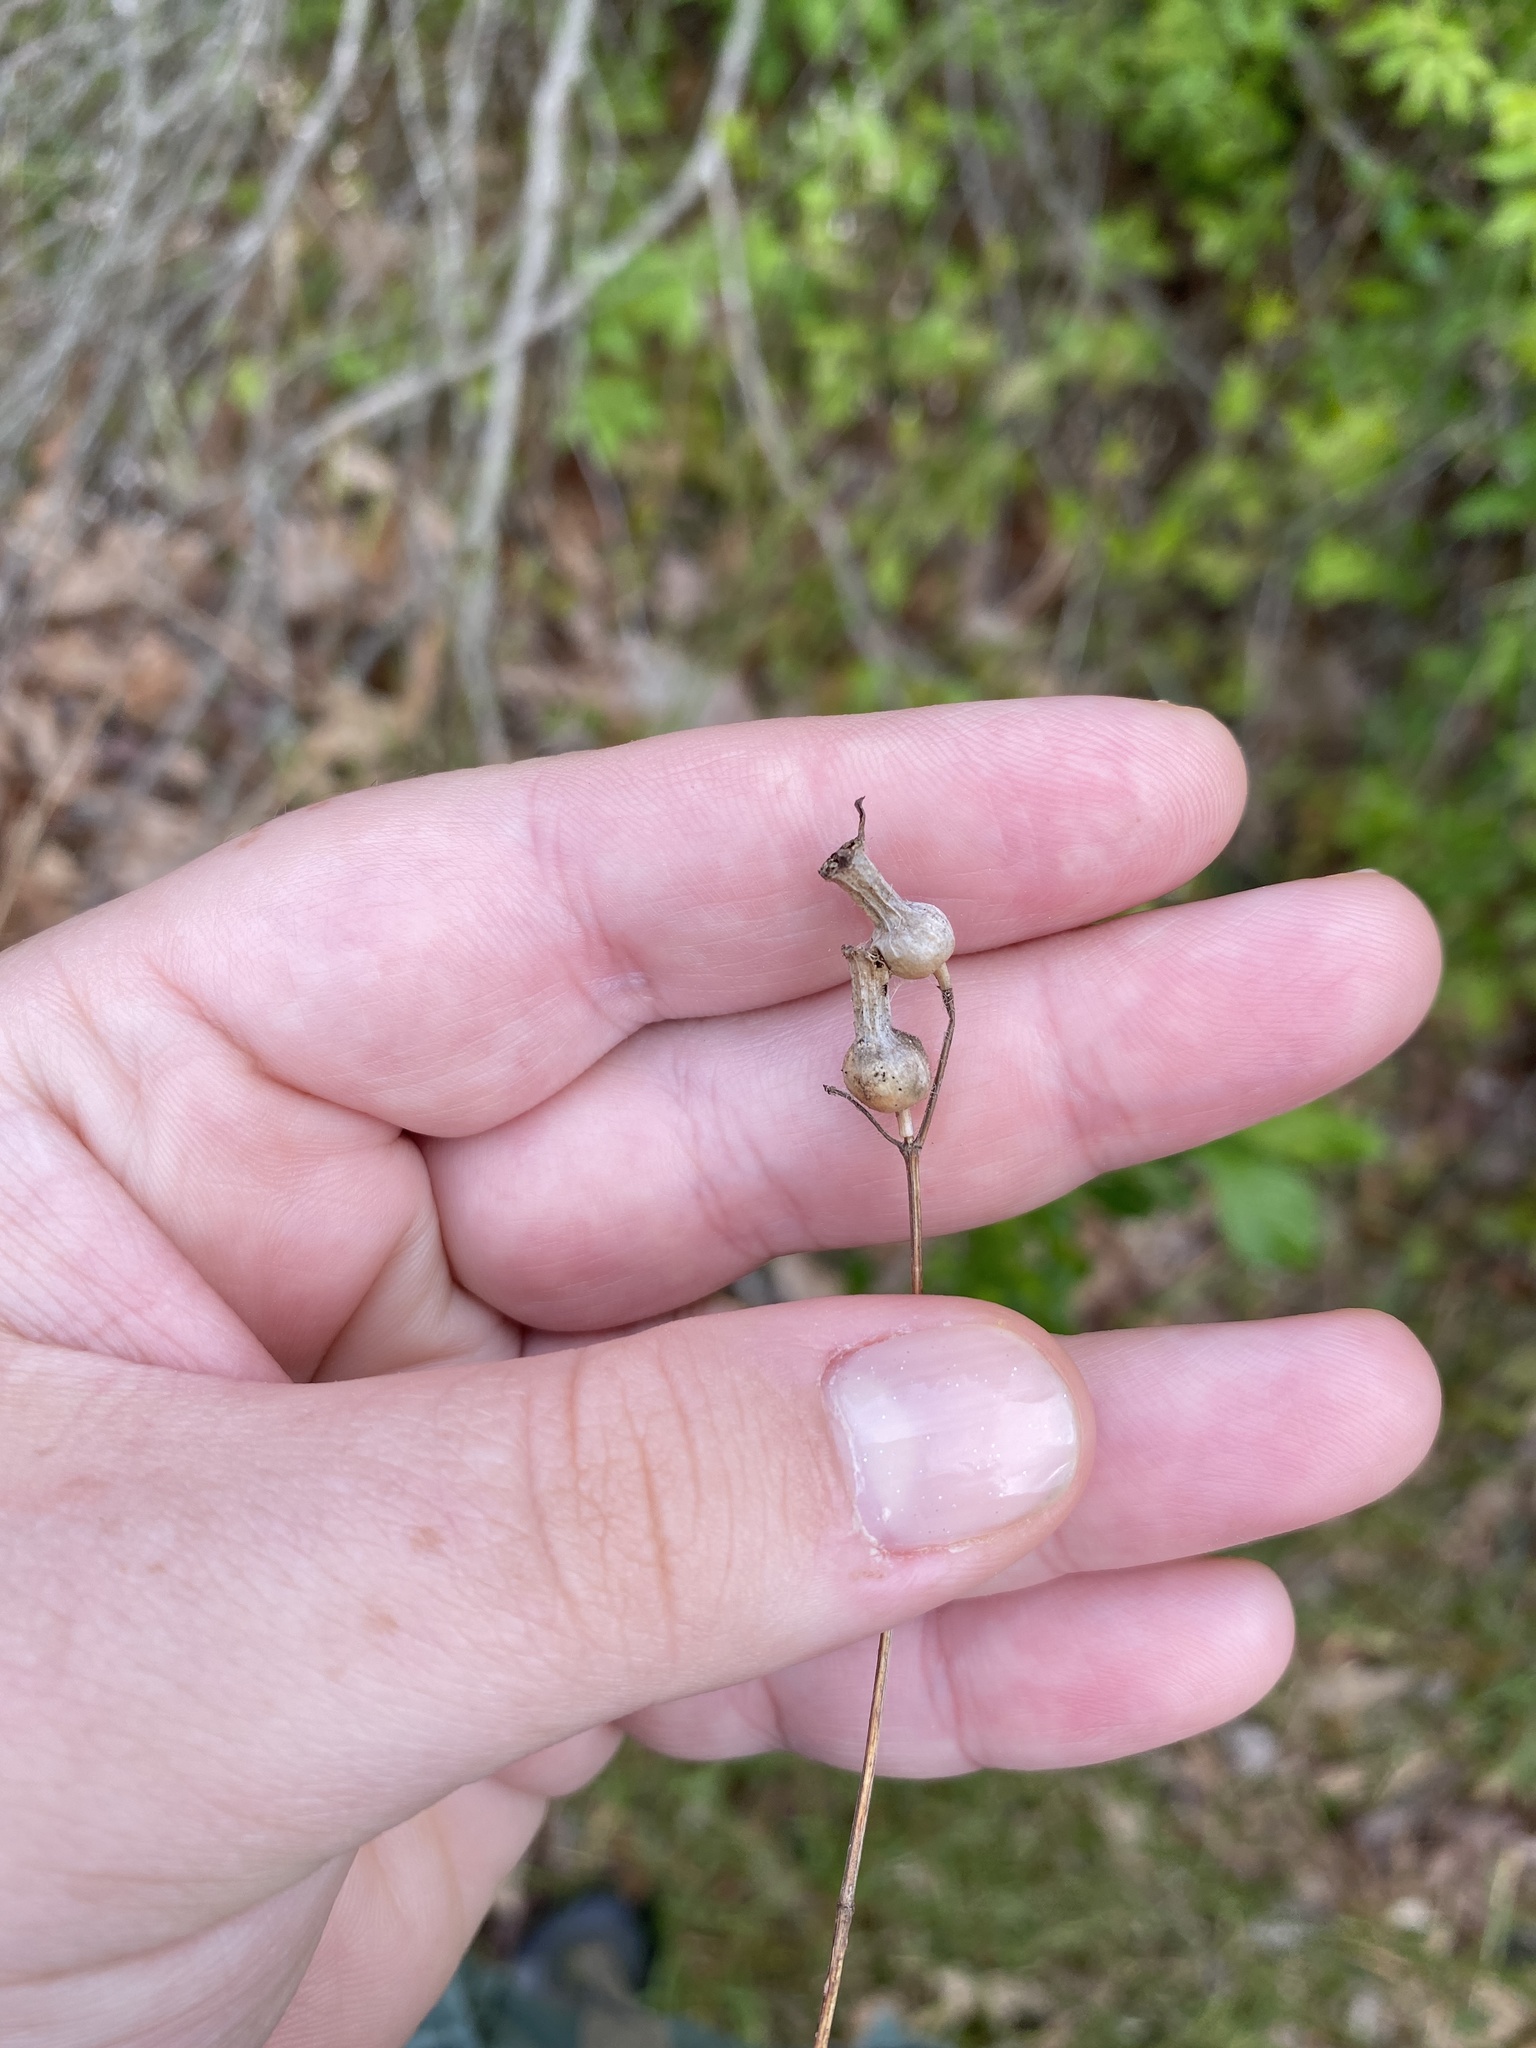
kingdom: Plantae
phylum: Tracheophyta
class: Magnoliopsida
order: Myrtales
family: Melastomataceae
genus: Rhexia
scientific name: Rhexia
